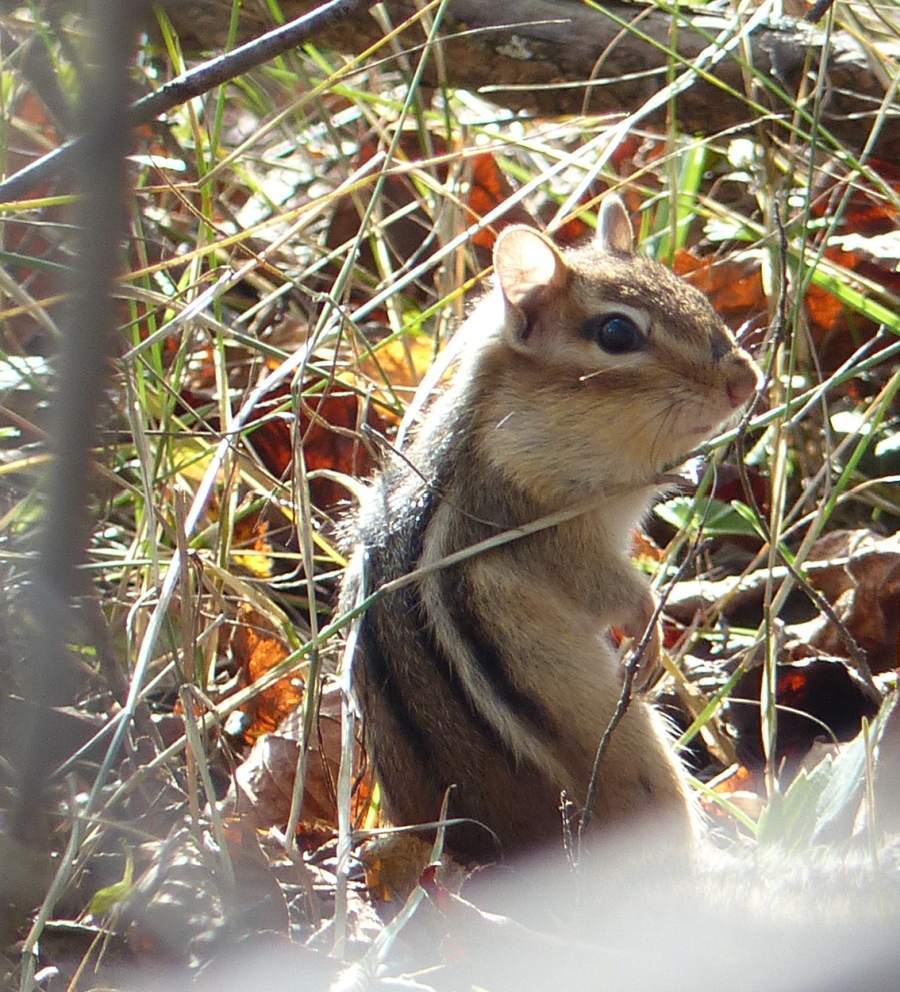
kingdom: Animalia
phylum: Chordata
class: Mammalia
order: Rodentia
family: Sciuridae
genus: Tamias
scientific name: Tamias striatus
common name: Eastern chipmunk
